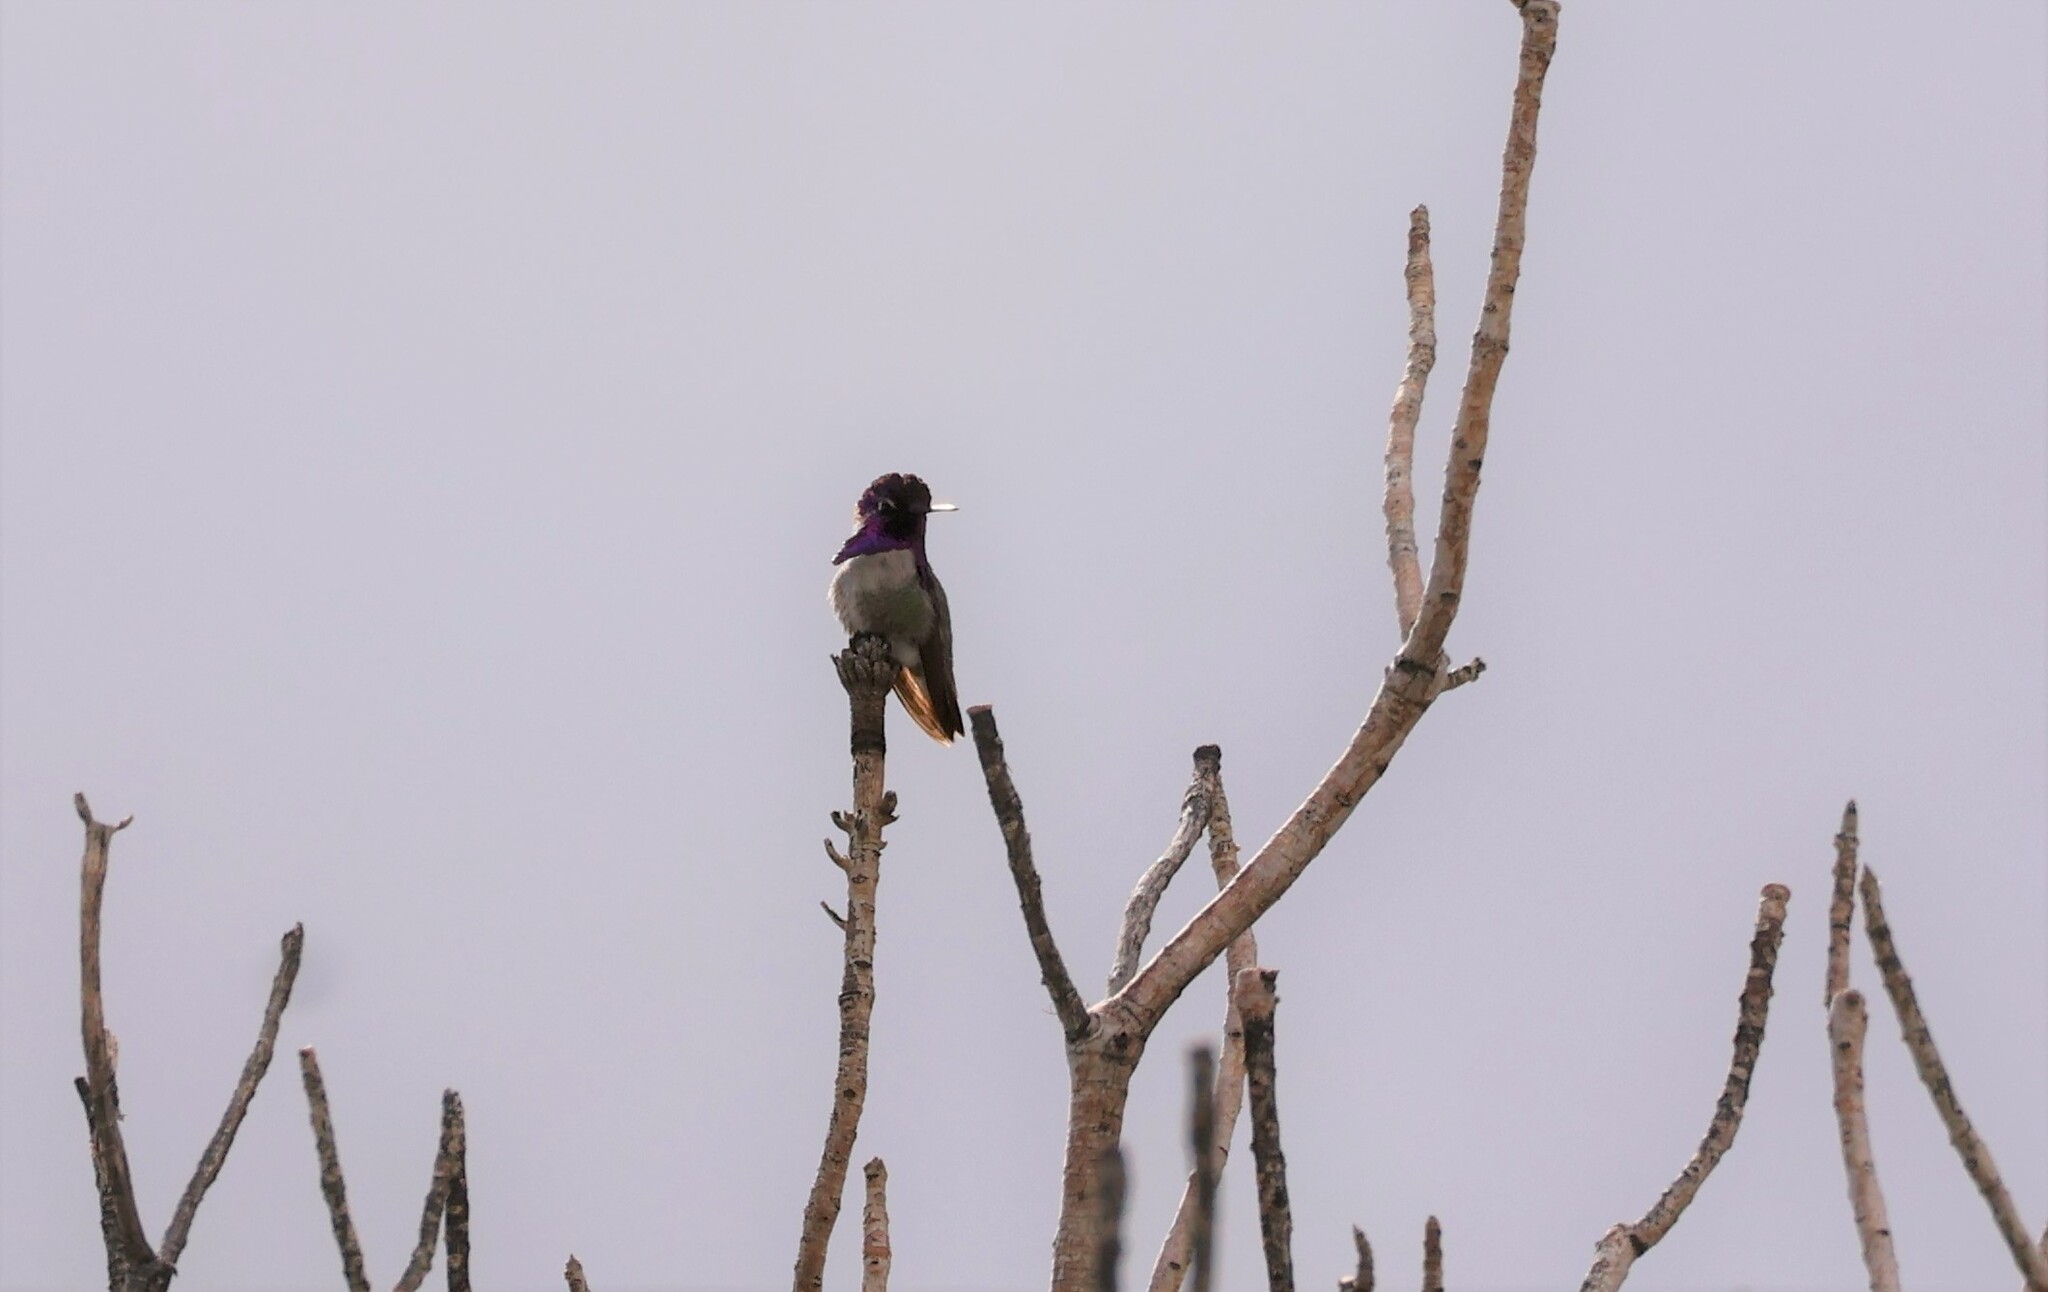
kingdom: Animalia
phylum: Chordata
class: Aves
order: Apodiformes
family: Trochilidae
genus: Calypte
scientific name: Calypte costae
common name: Costa's hummingbird
